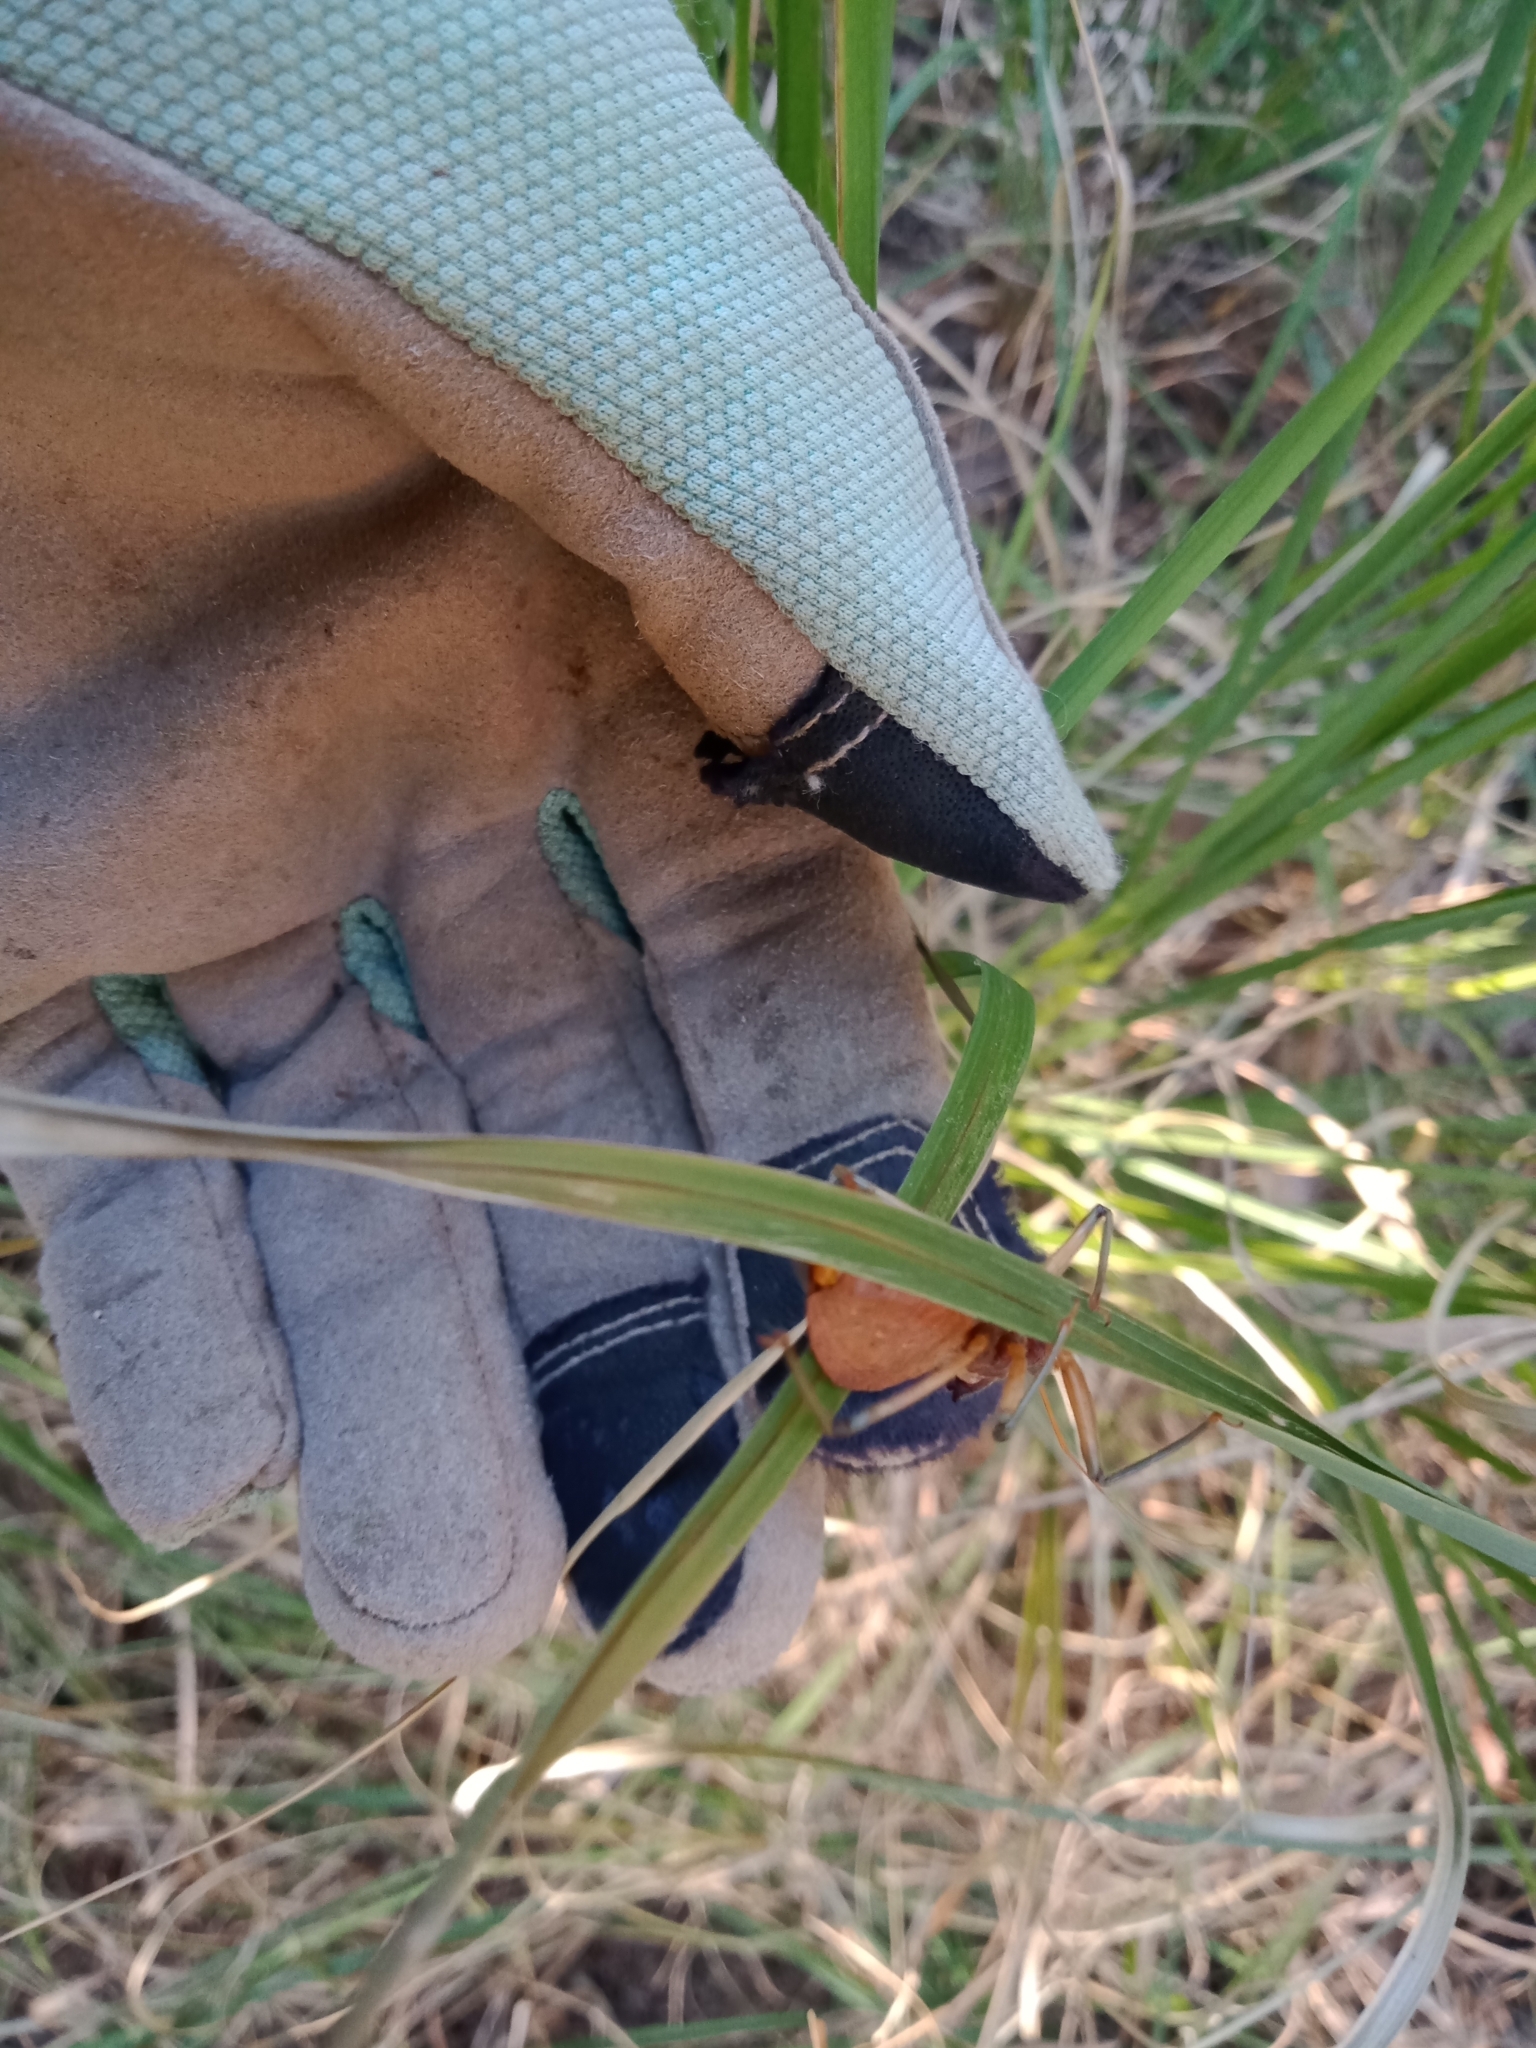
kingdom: Animalia
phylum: Arthropoda
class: Insecta
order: Hemiptera
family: Reduviidae
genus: Pristhesancus
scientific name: Pristhesancus plagipennis
